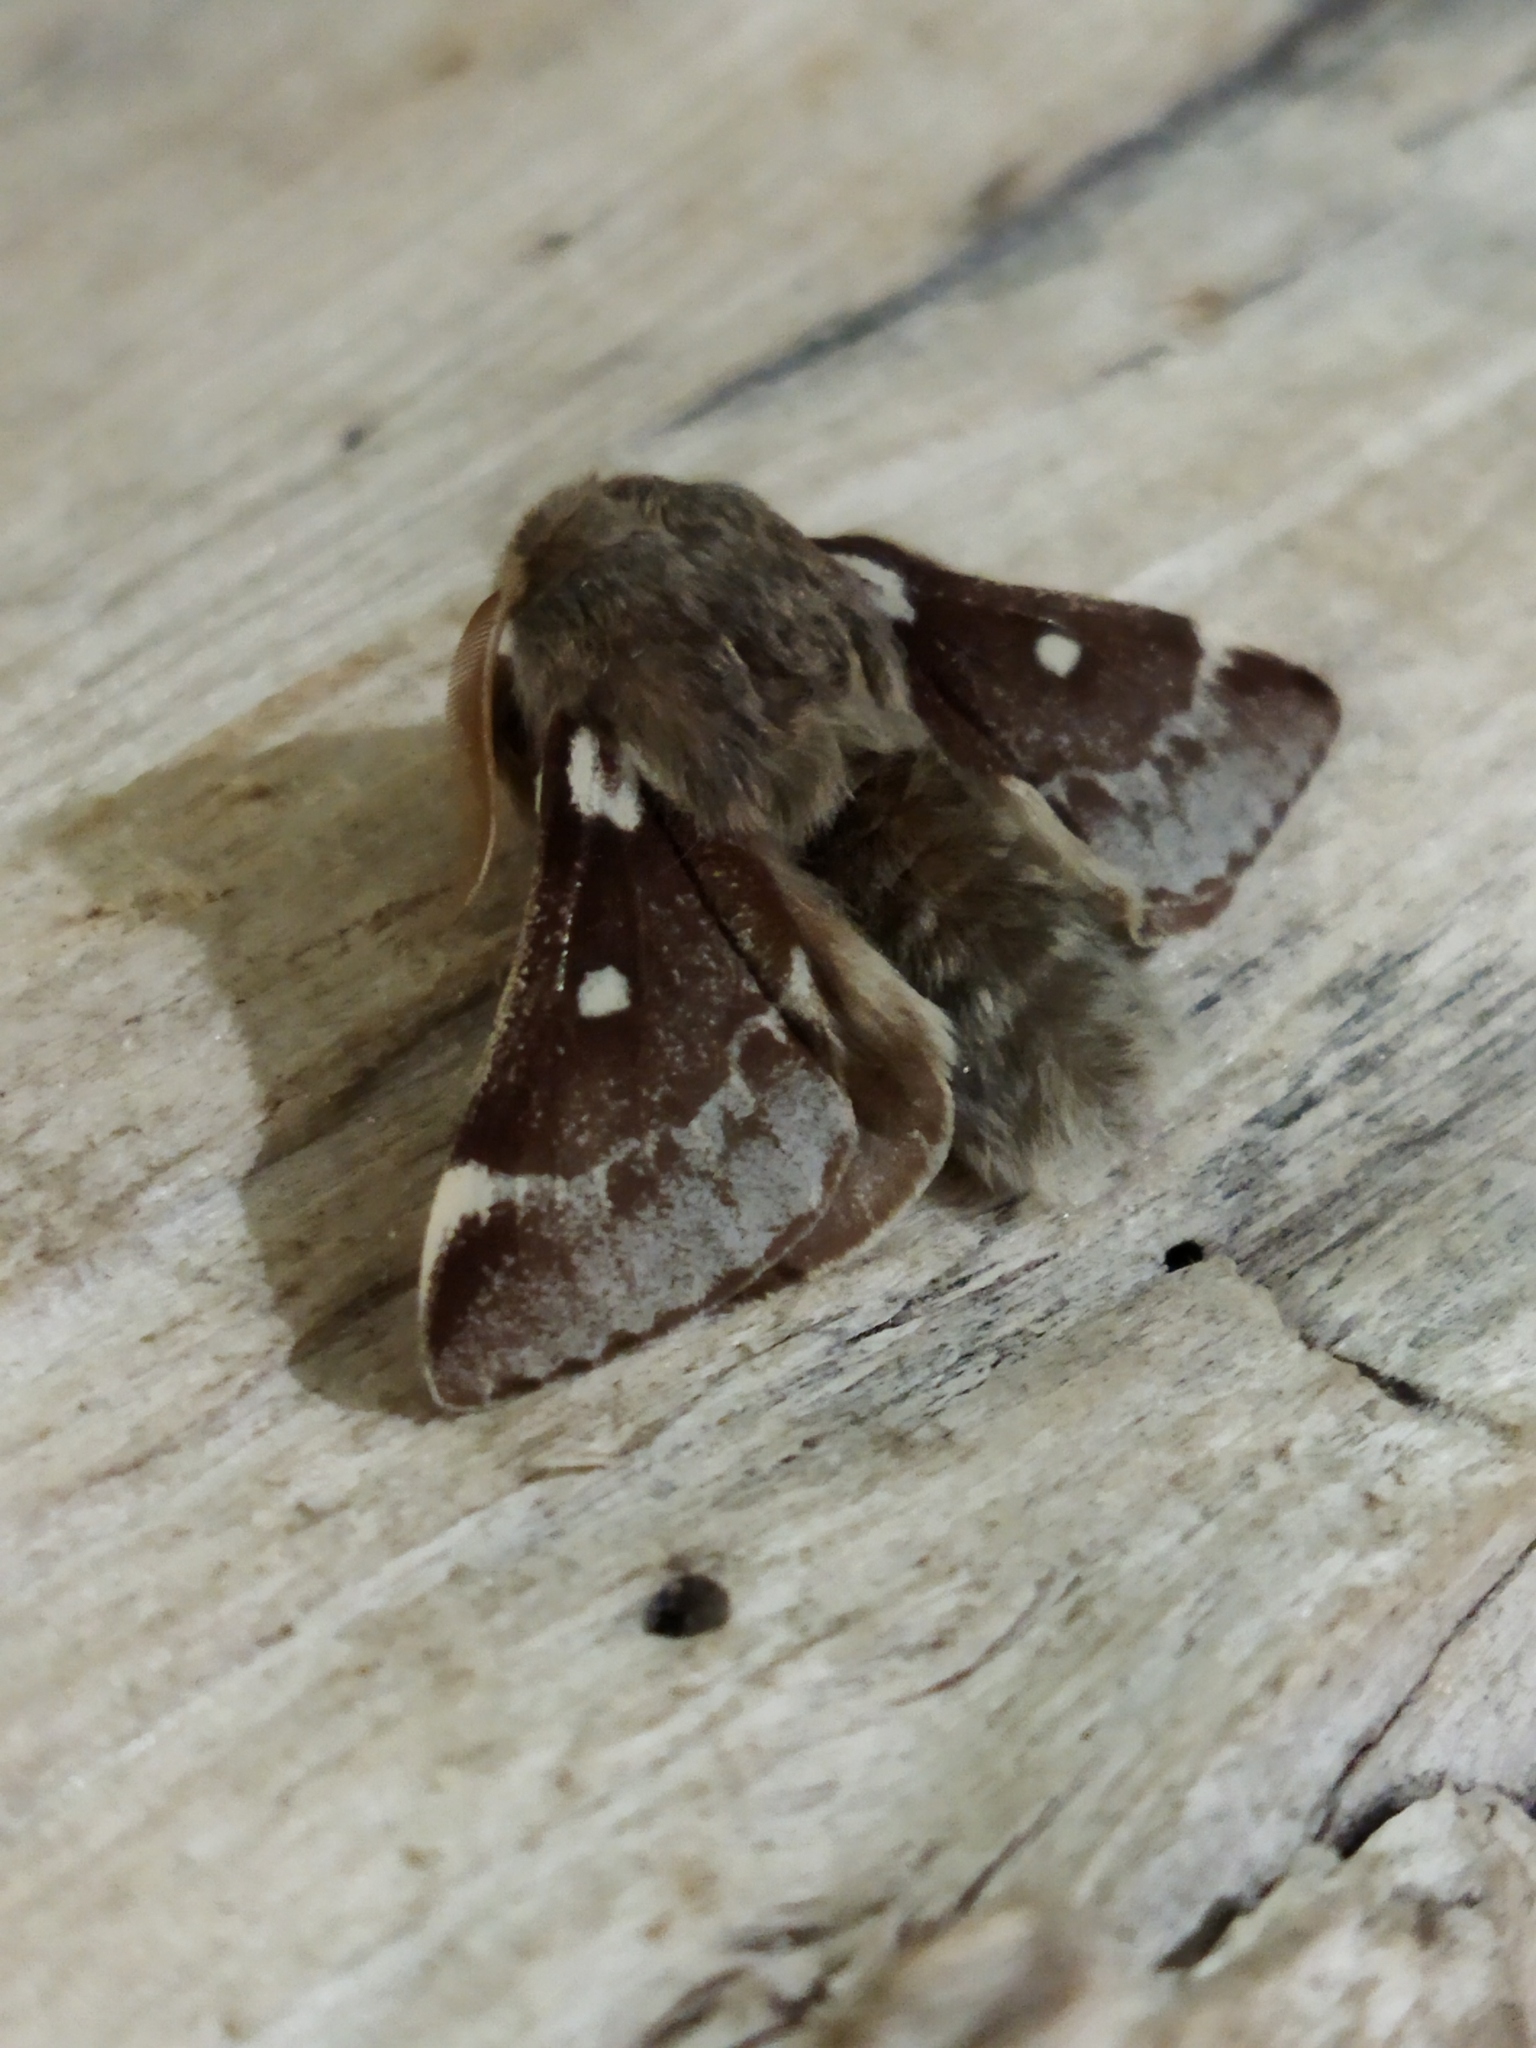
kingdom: Animalia
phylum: Arthropoda
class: Insecta
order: Lepidoptera
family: Lasiocampidae
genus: Eriogaster
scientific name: Eriogaster lanestris
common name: Small eggar
